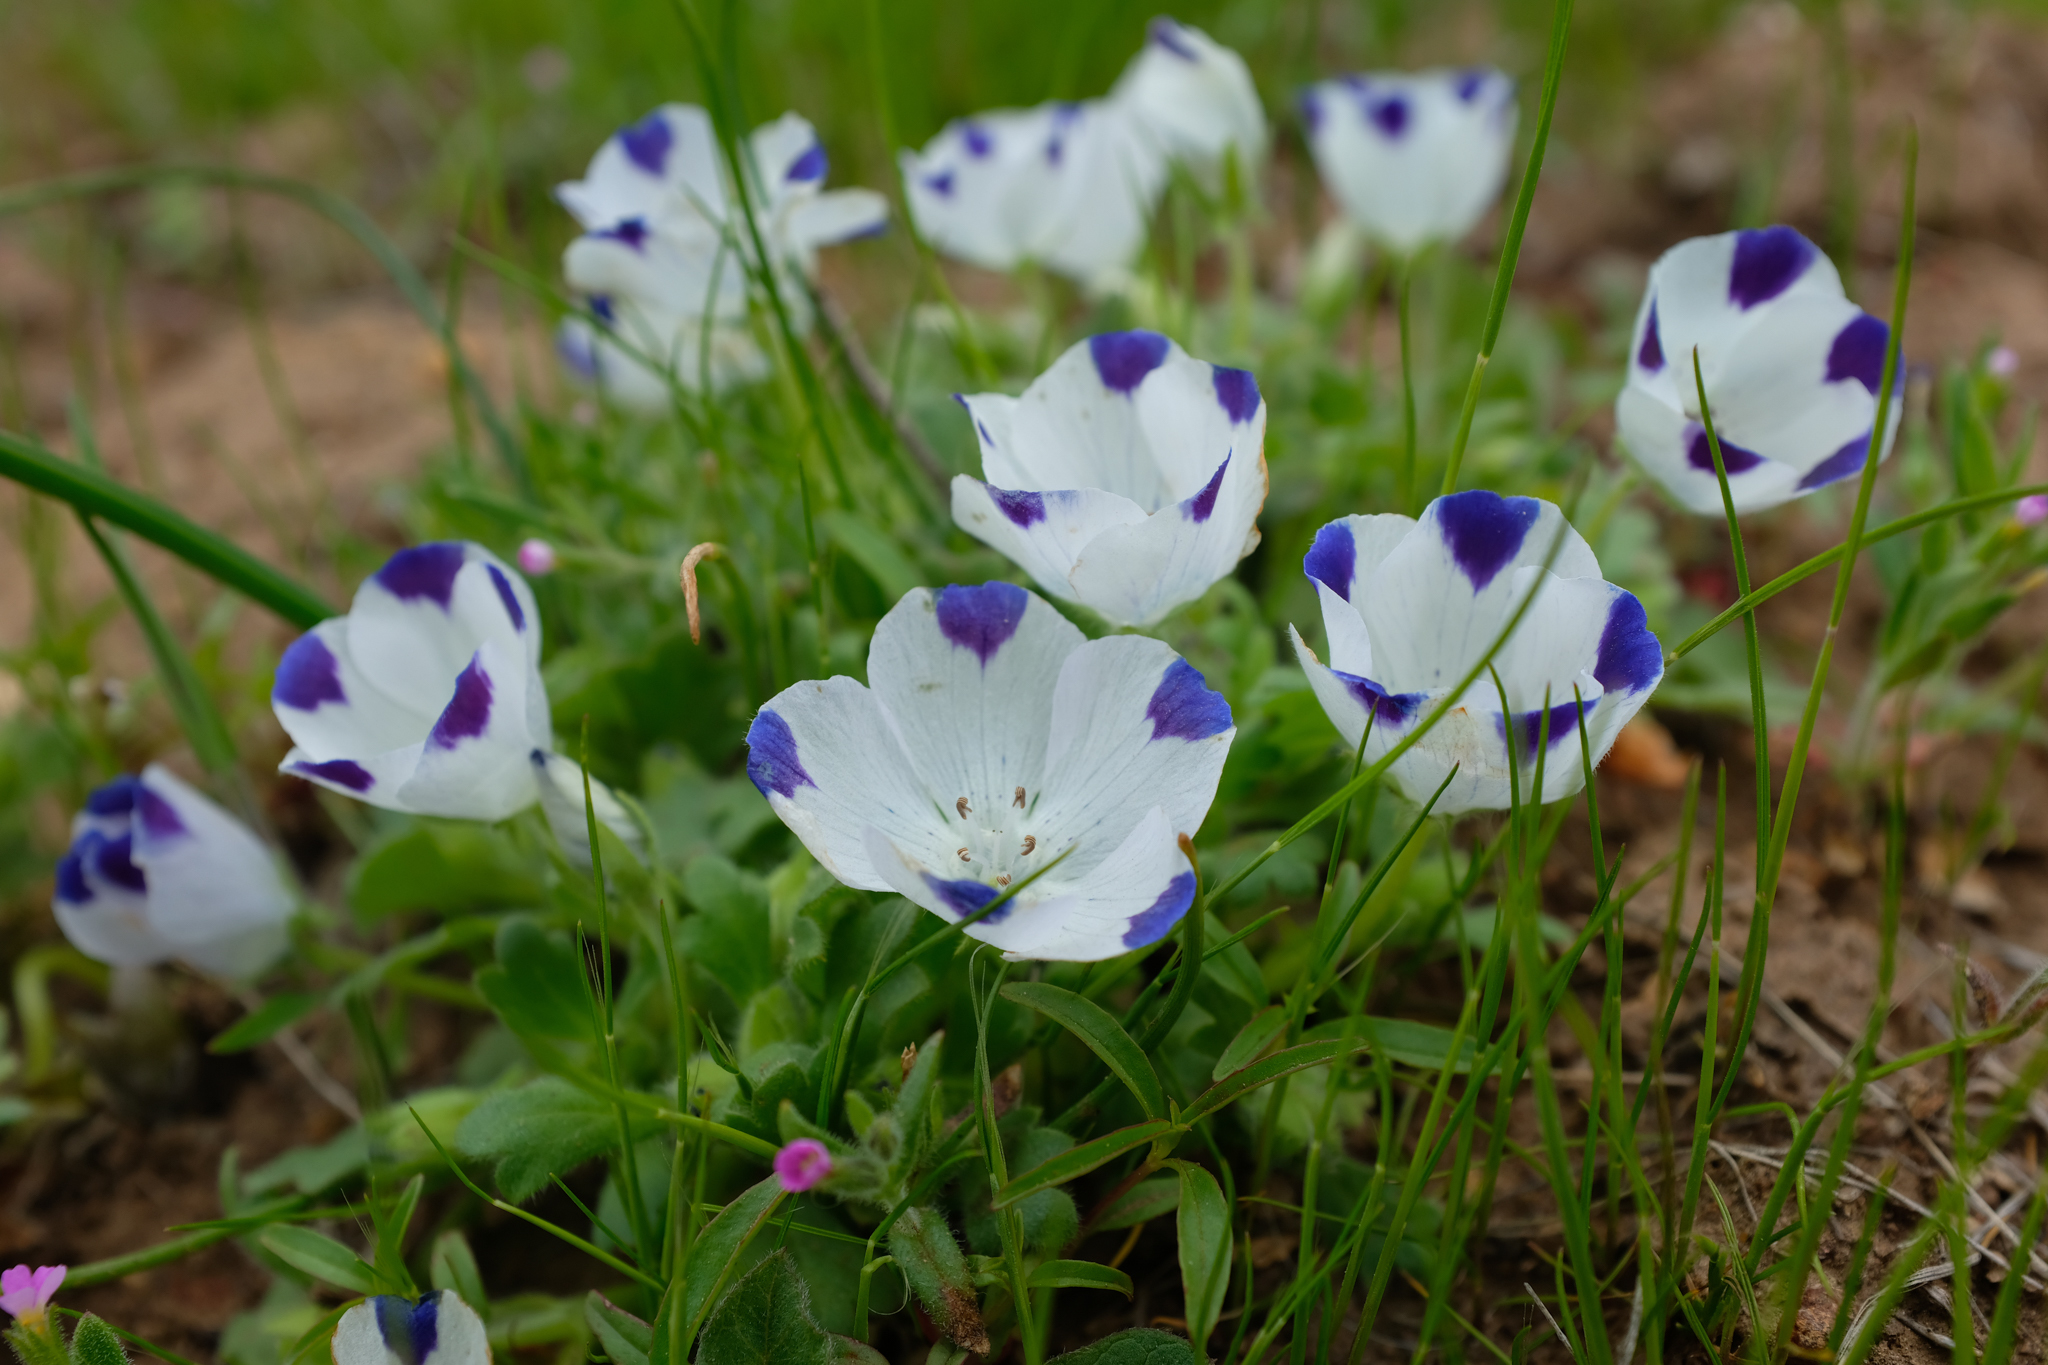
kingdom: Plantae
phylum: Tracheophyta
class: Magnoliopsida
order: Boraginales
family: Hydrophyllaceae
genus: Nemophila
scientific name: Nemophila maculata
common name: Fivespot
